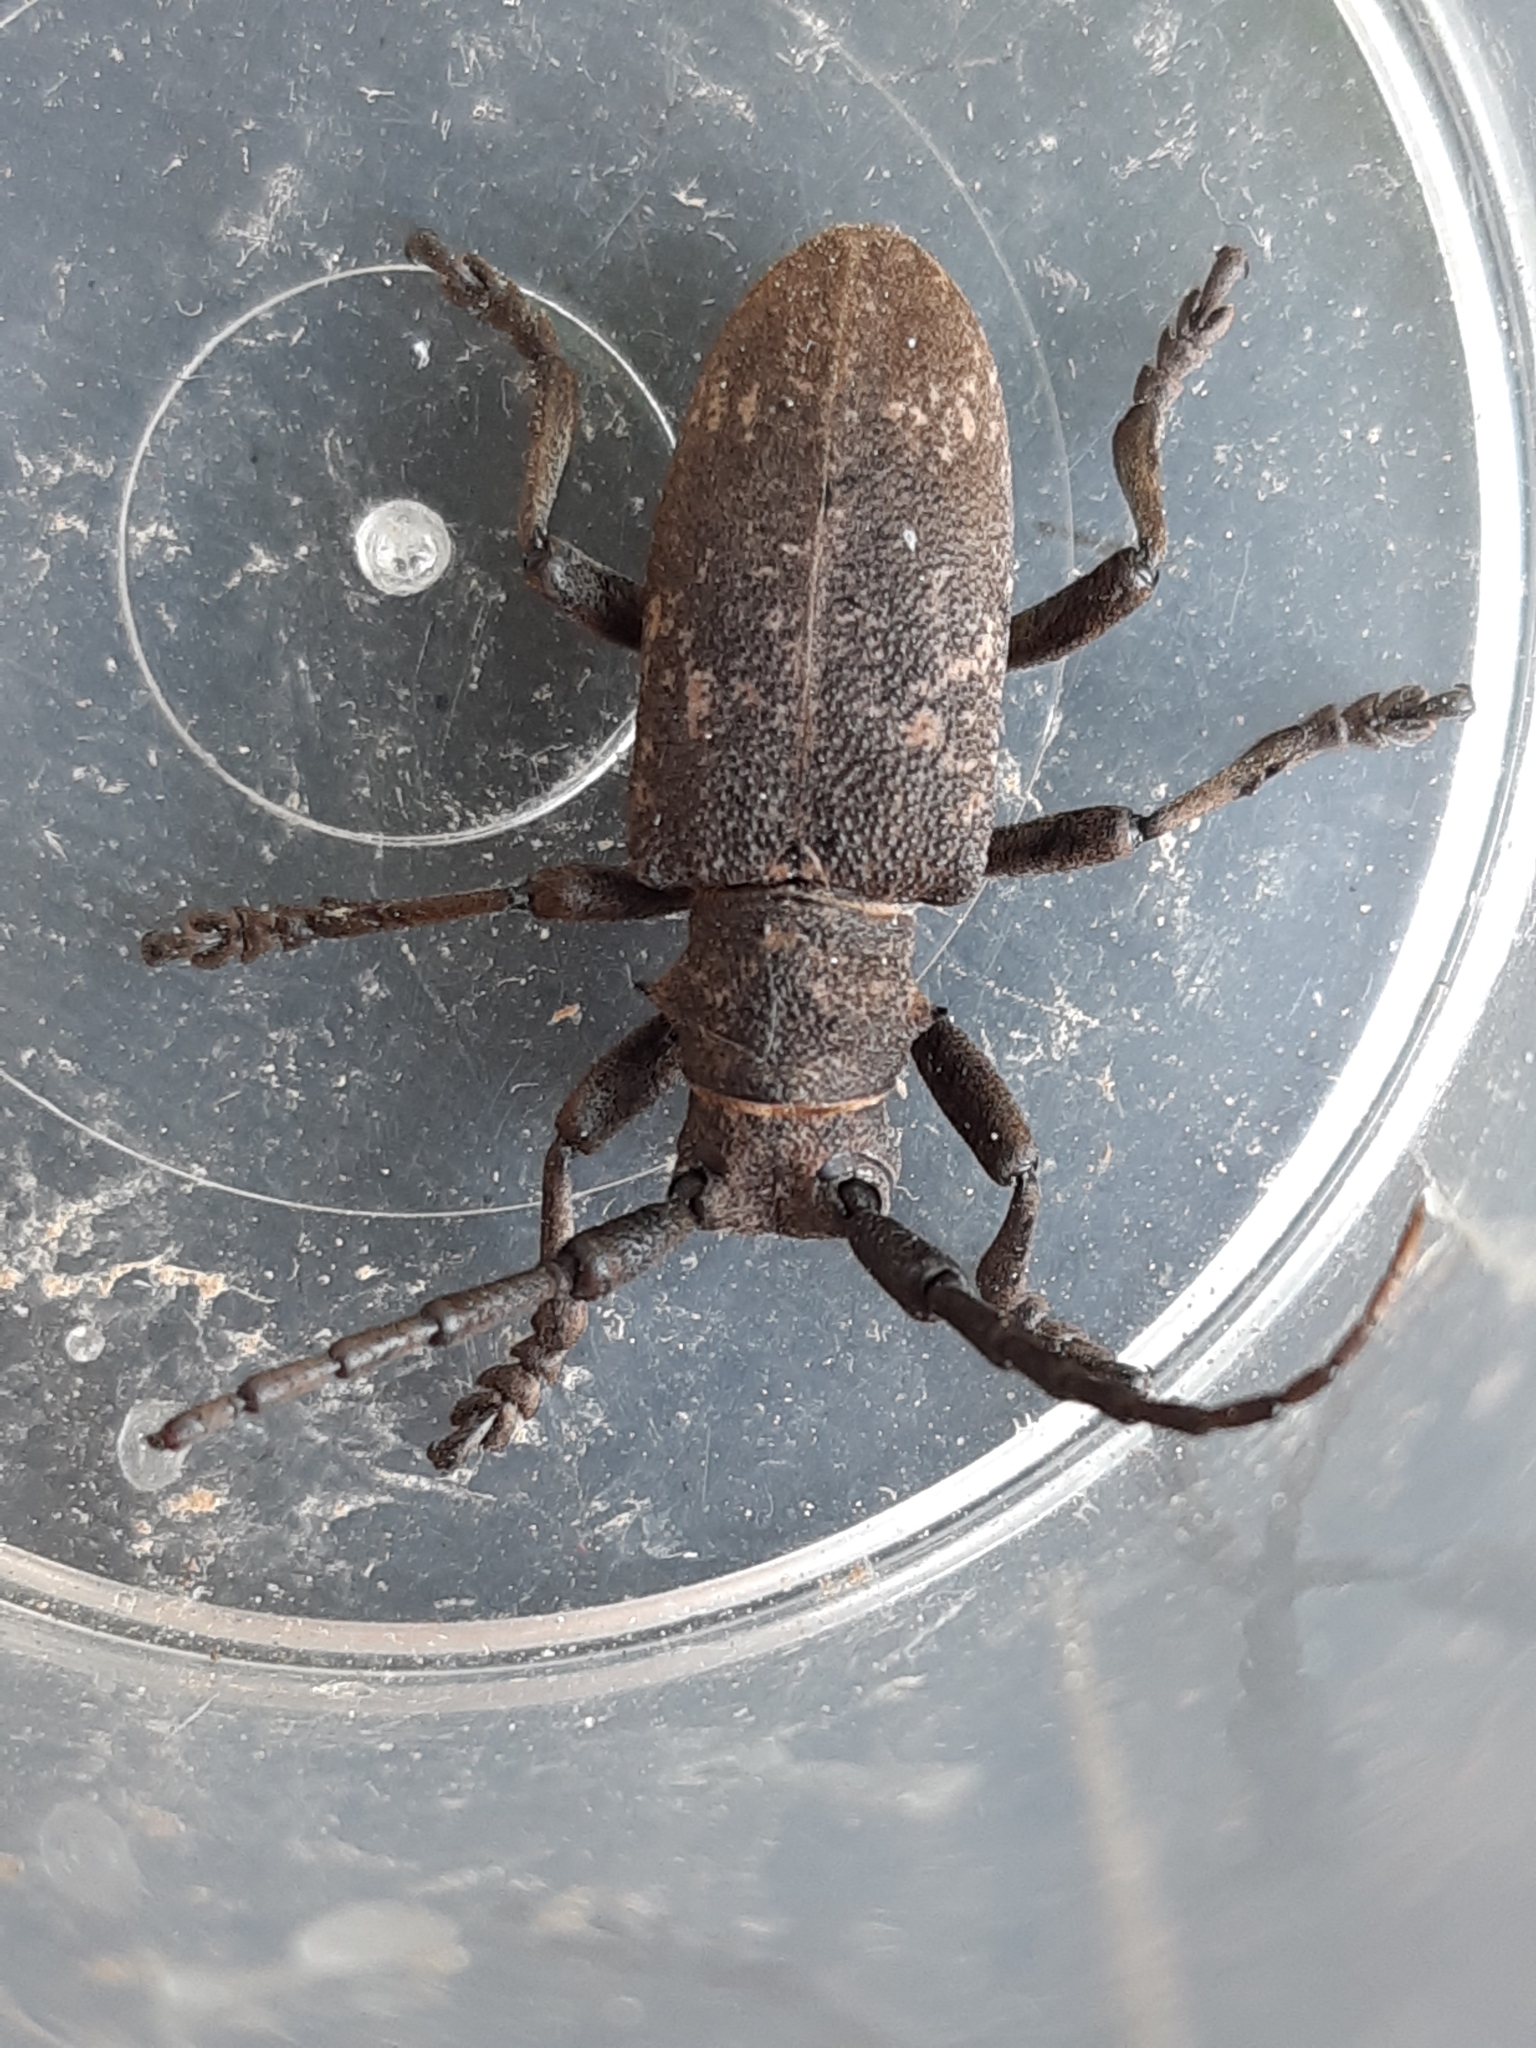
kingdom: Animalia
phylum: Arthropoda
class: Insecta
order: Coleoptera
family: Cerambycidae
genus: Lamia
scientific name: Lamia textor
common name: Weaver beetle
